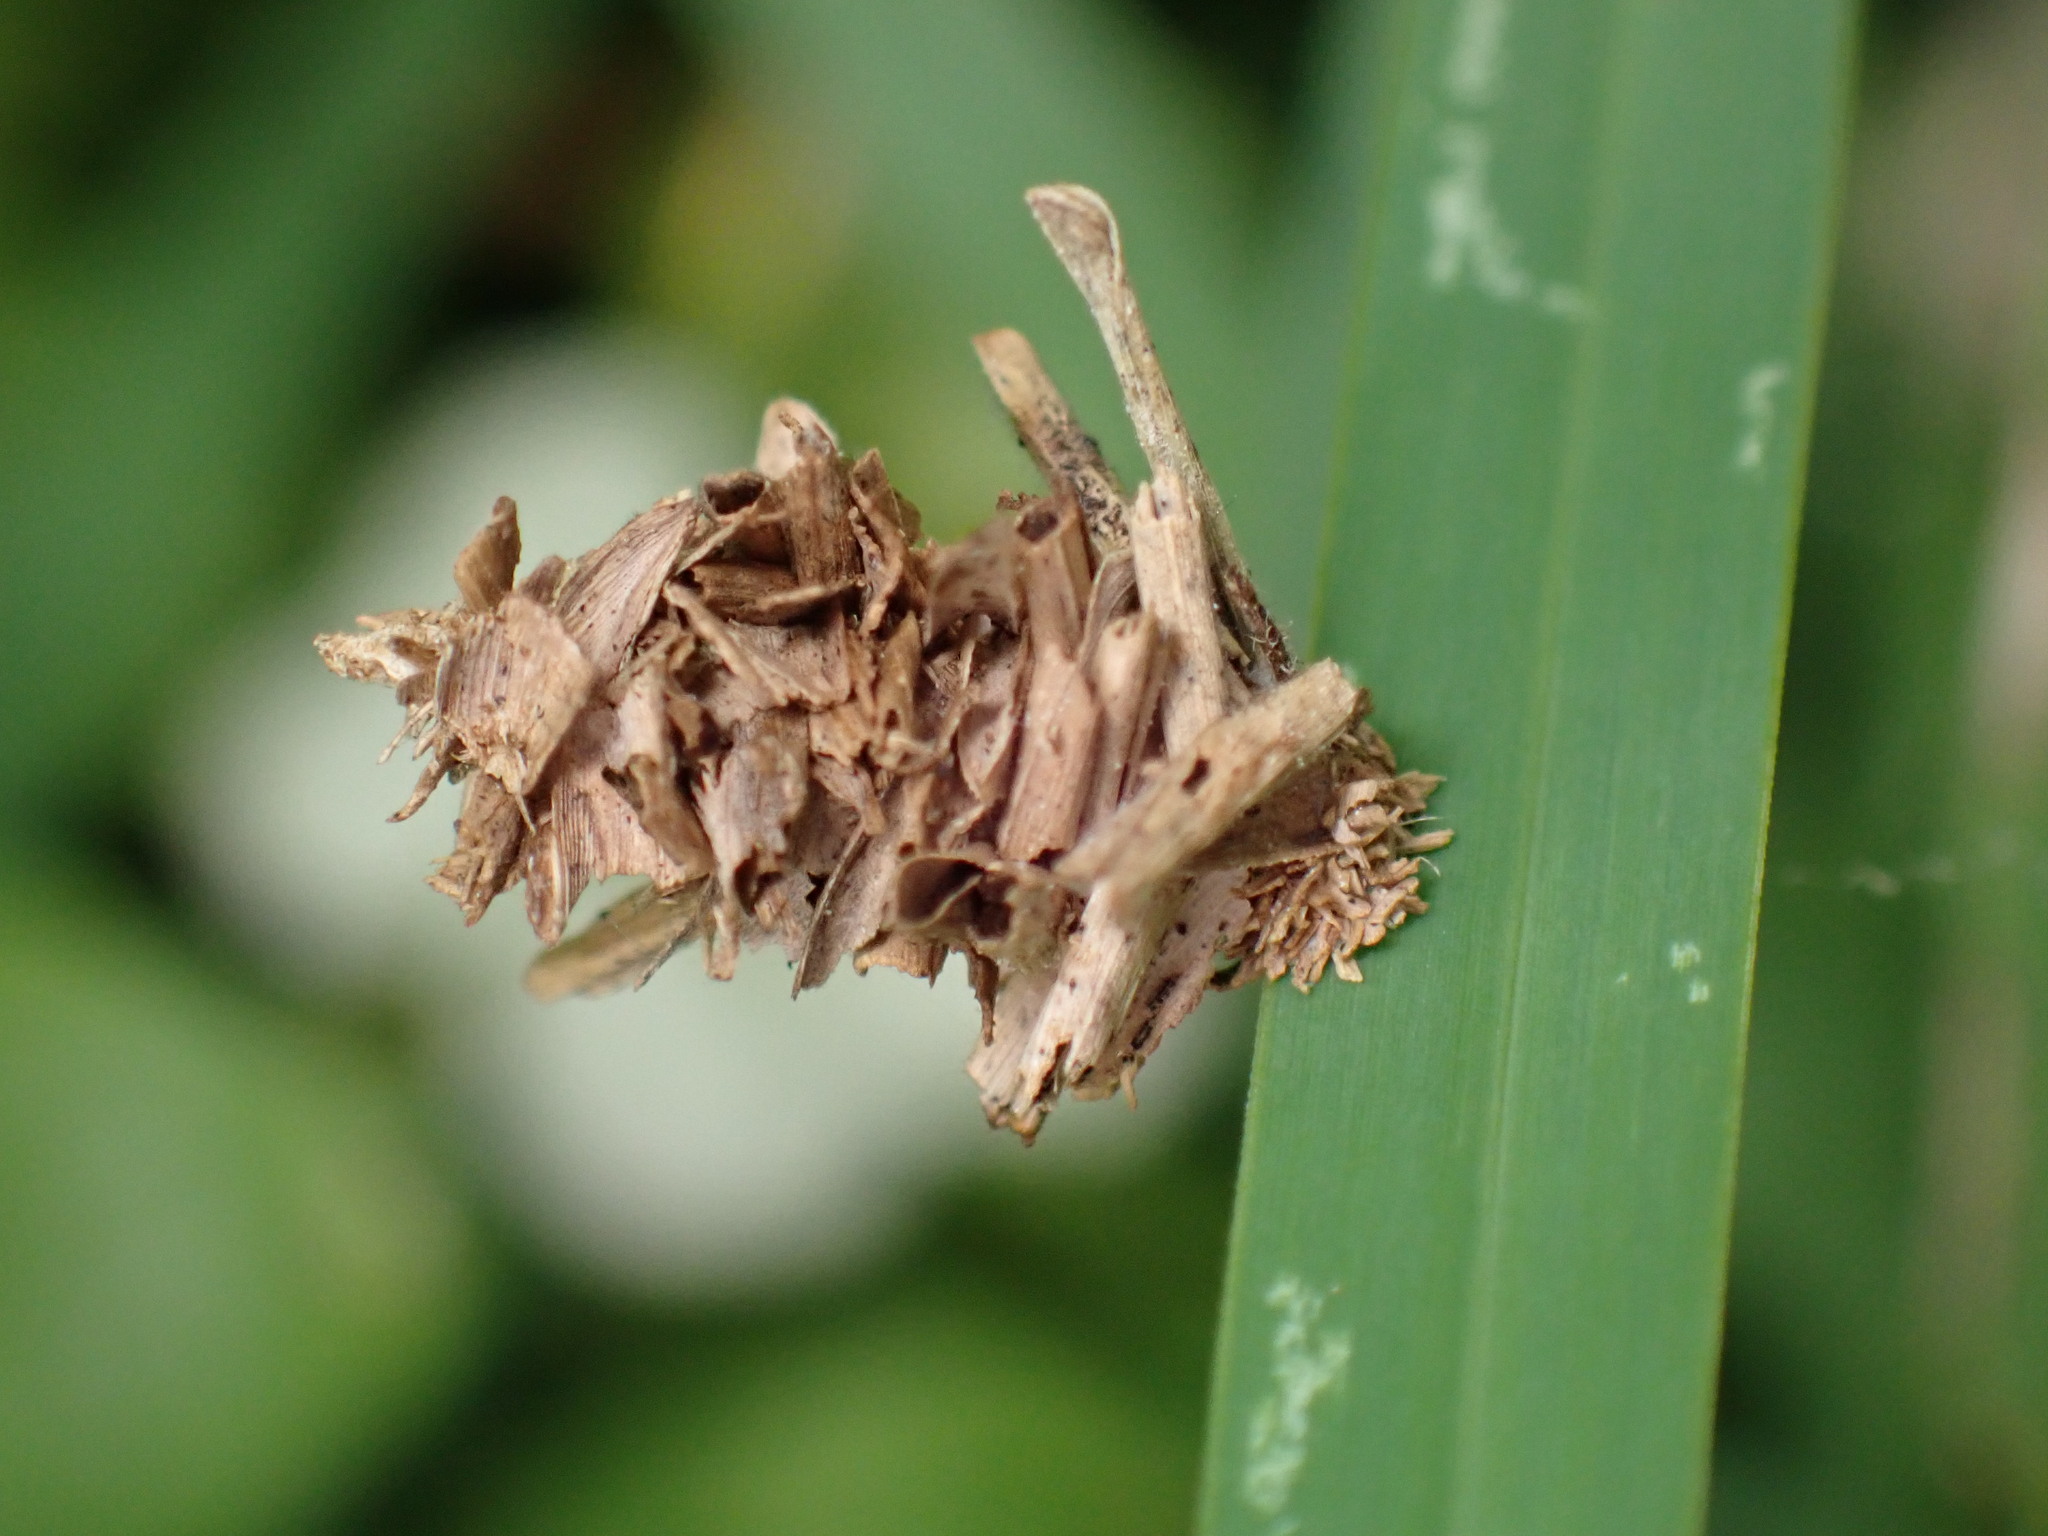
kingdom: Animalia
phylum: Arthropoda
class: Insecta
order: Lepidoptera
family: Psychidae
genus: Brachycyttarus
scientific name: Brachycyttarus griseus
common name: Grass bagworm
